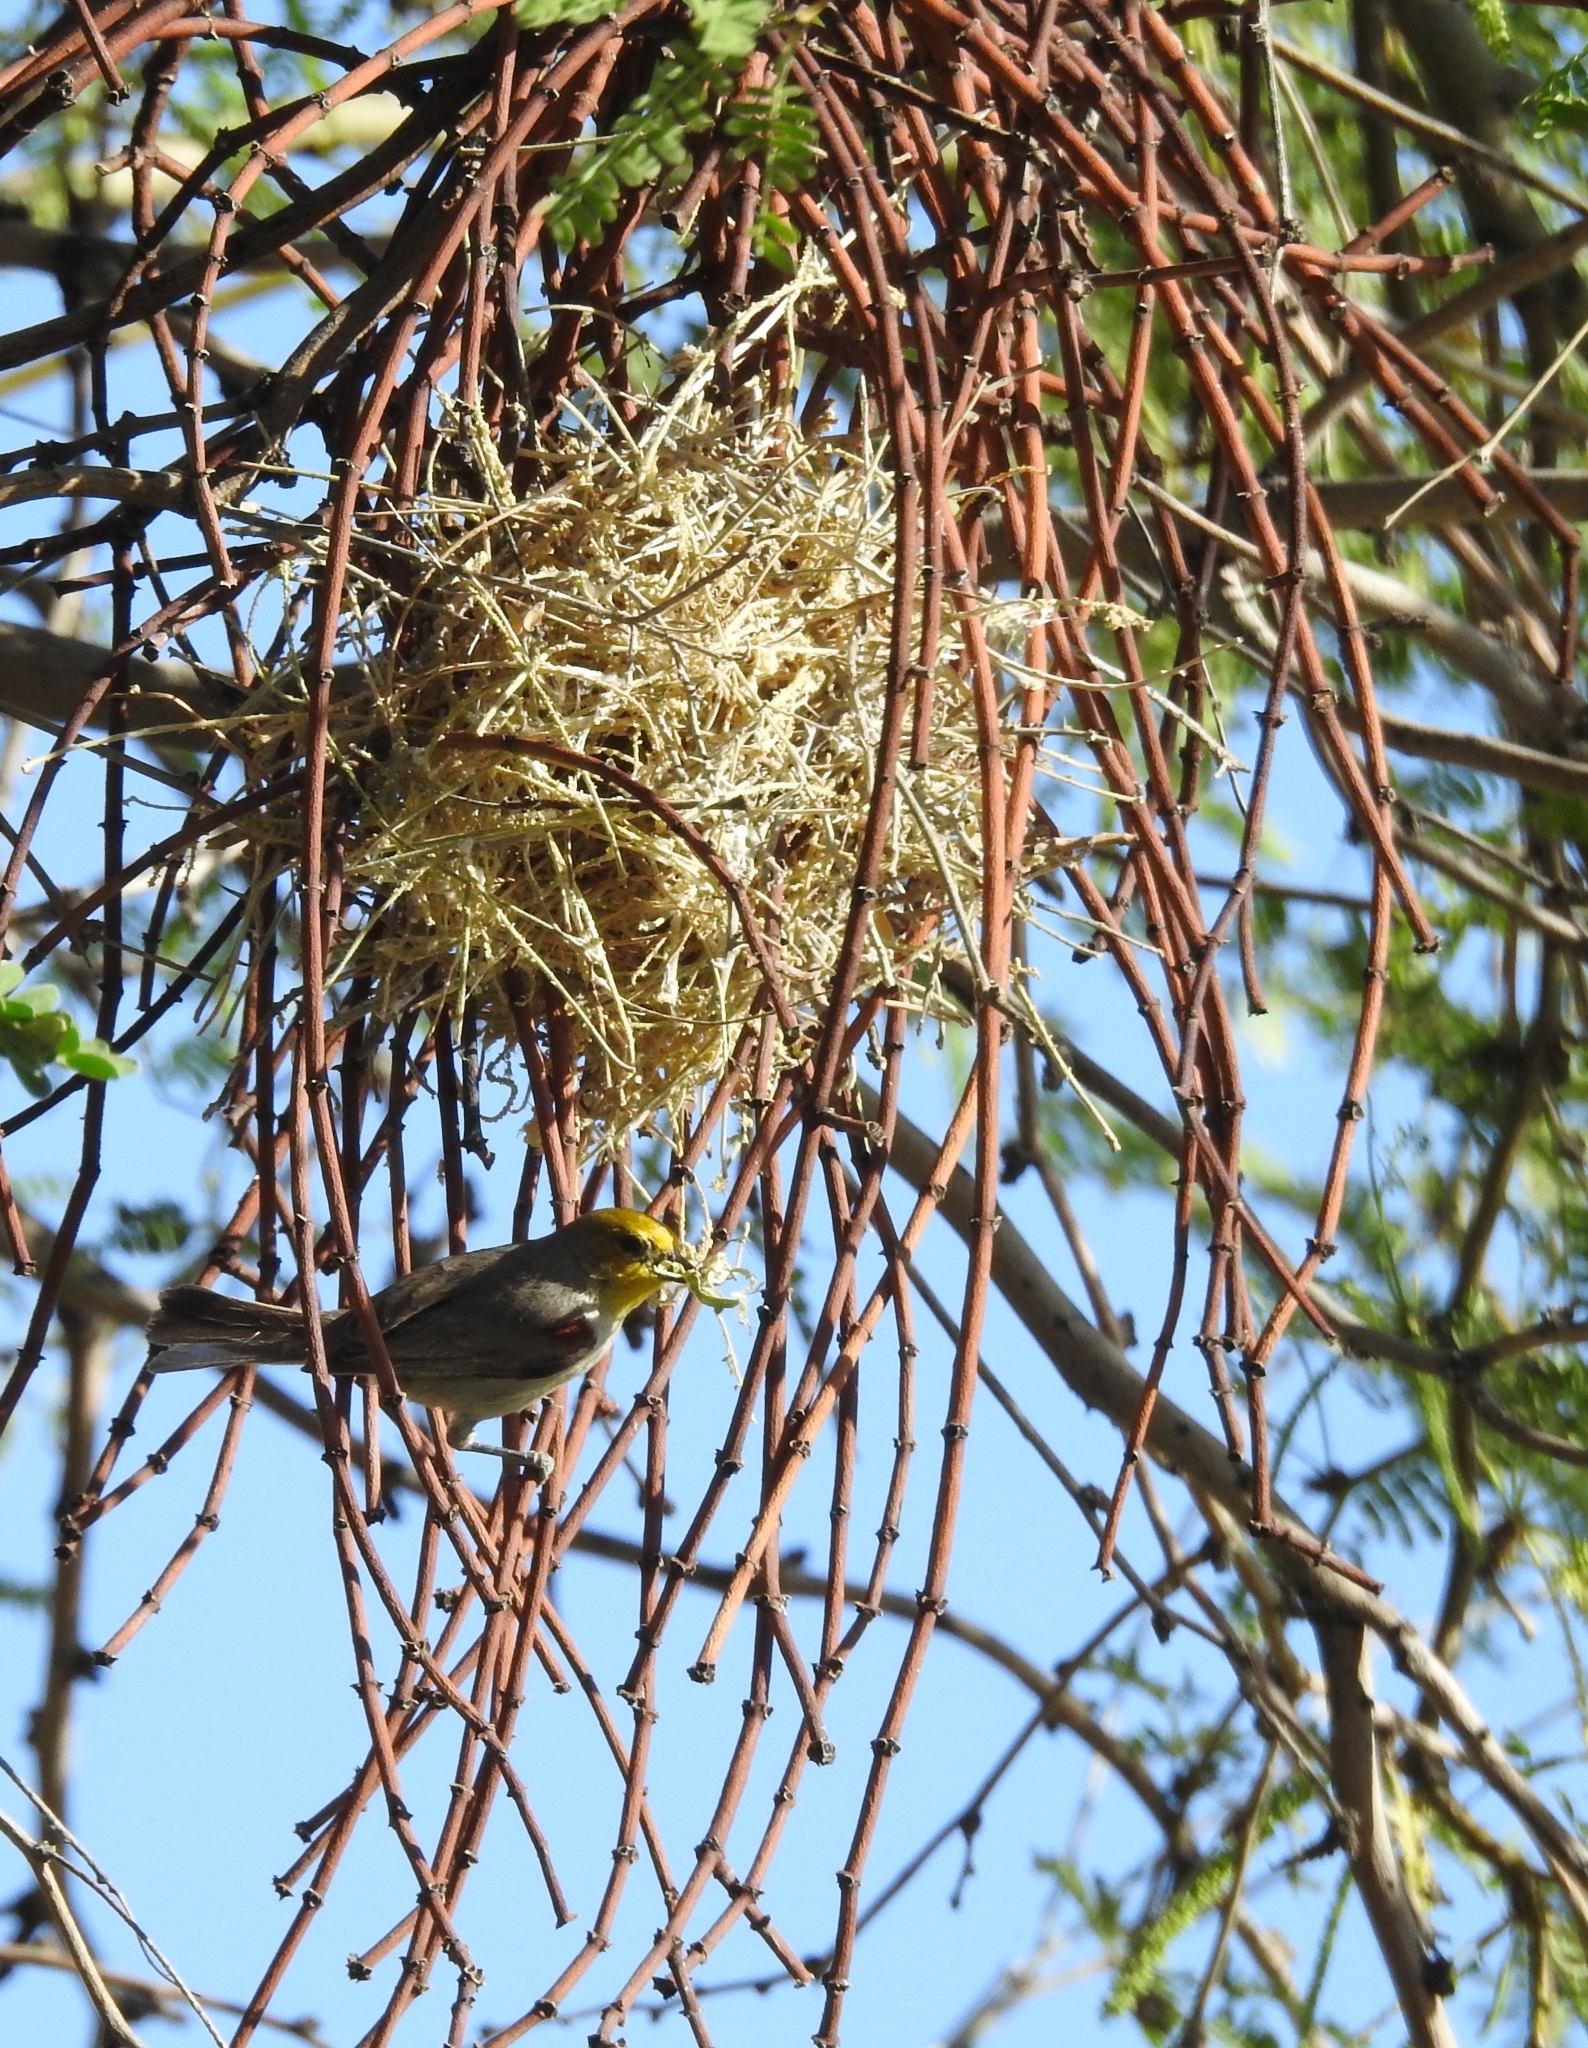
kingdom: Animalia
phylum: Chordata
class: Aves
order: Passeriformes
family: Remizidae
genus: Auriparus
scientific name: Auriparus flaviceps
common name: Verdin
